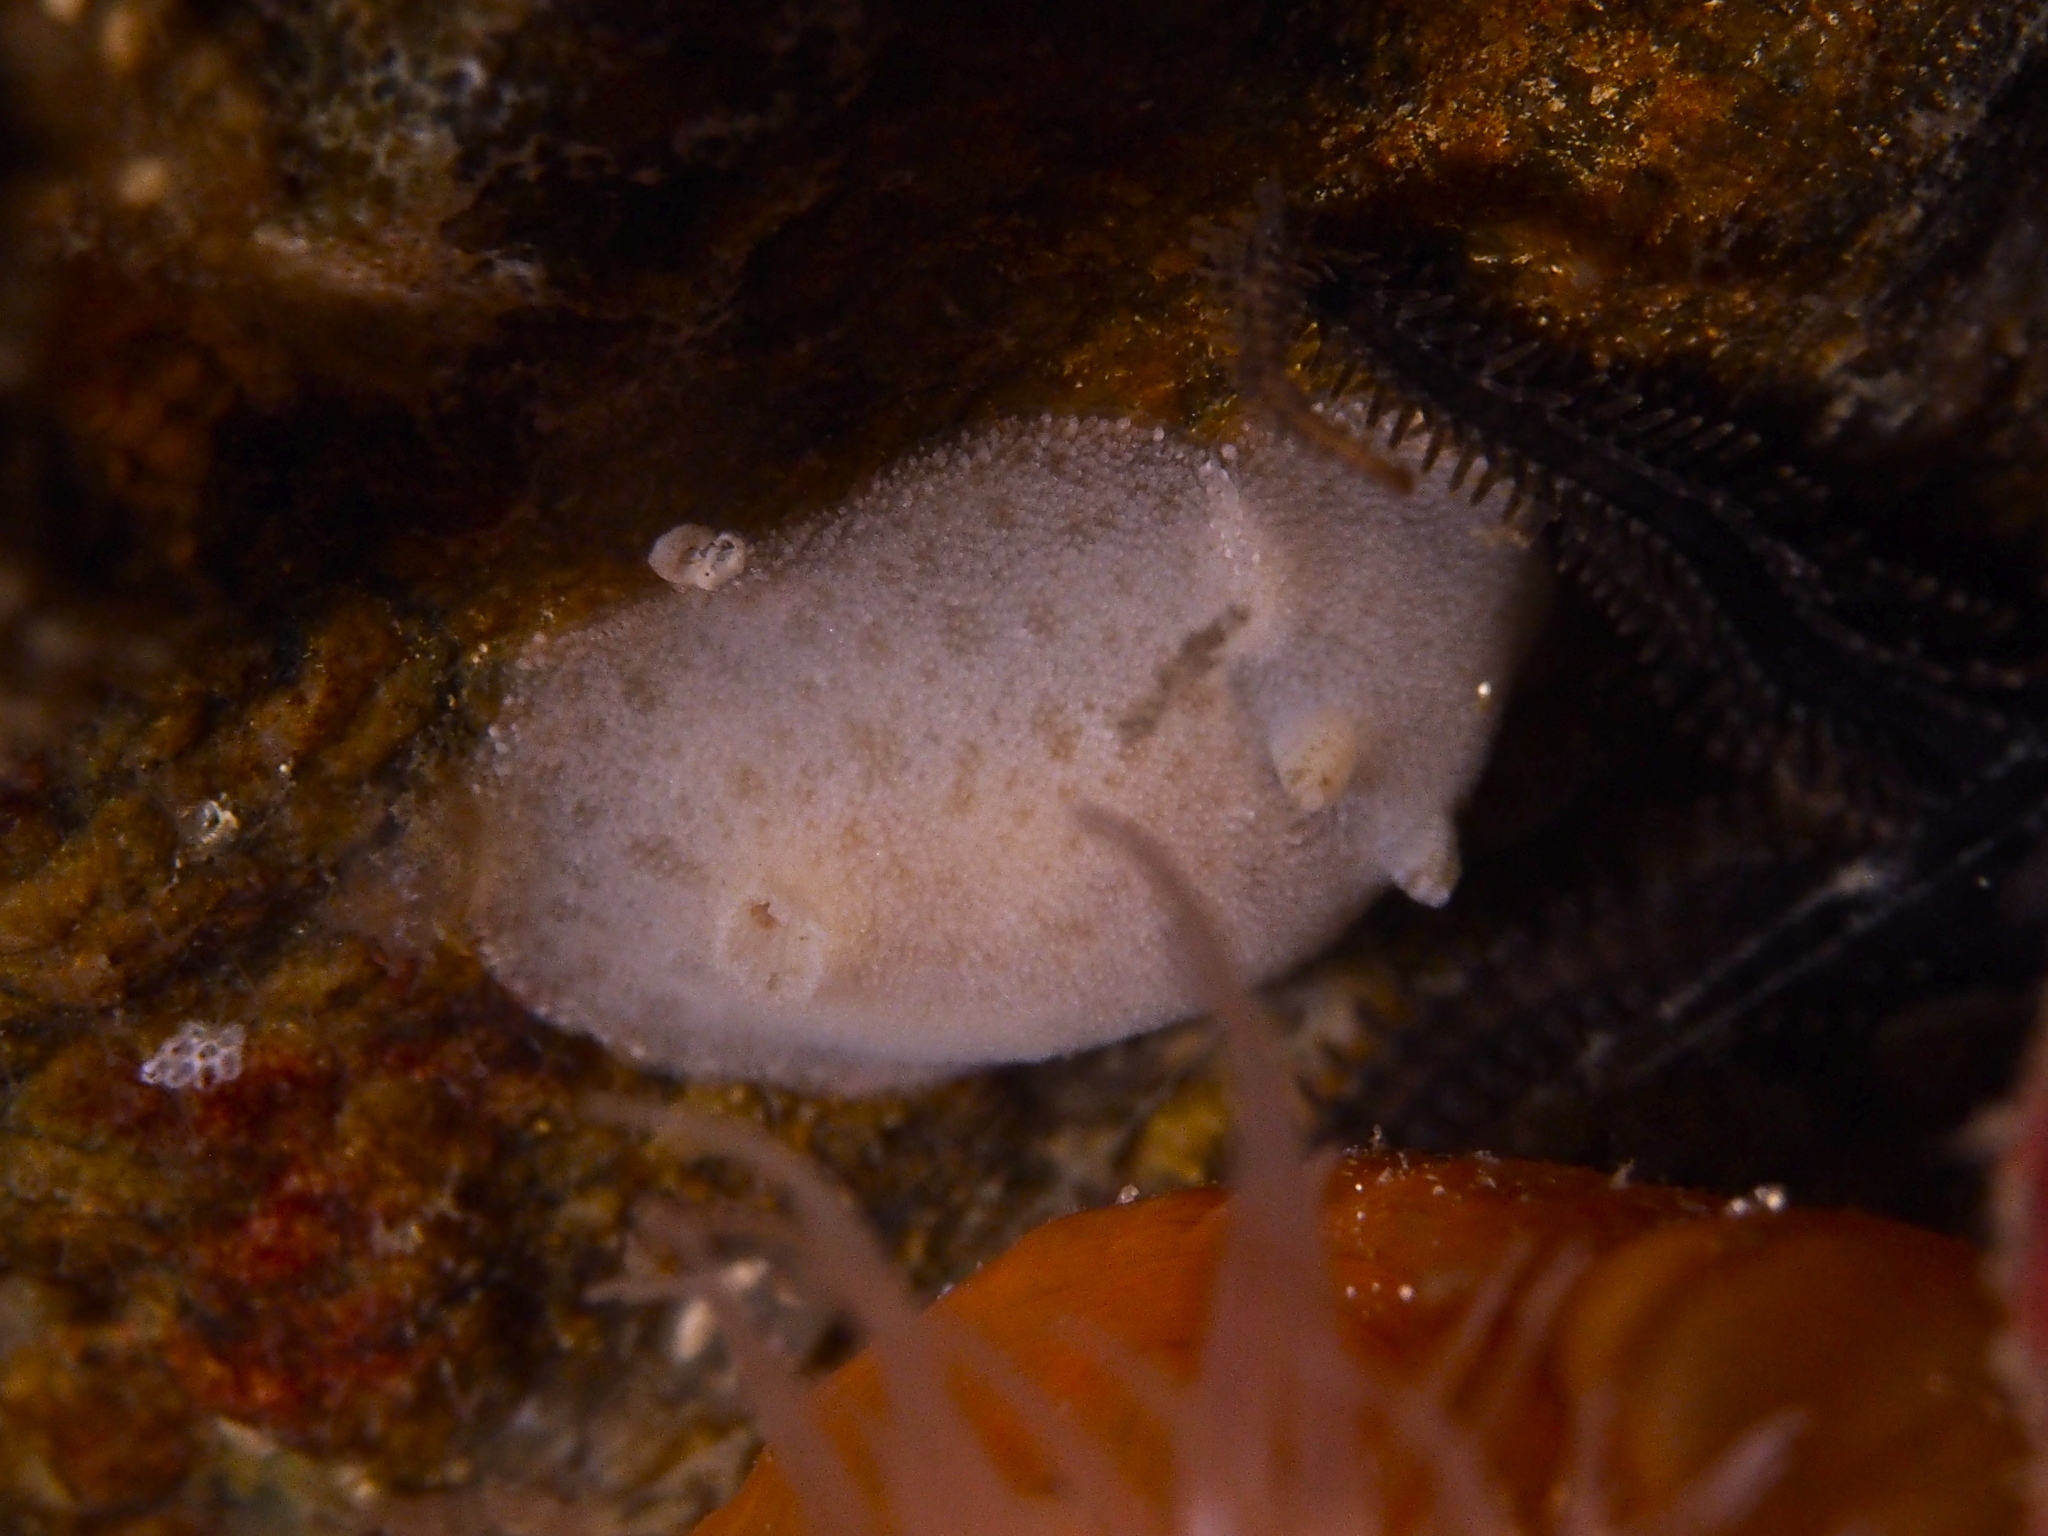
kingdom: Animalia
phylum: Mollusca
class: Gastropoda
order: Nudibranchia
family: Dorididae
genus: Doris
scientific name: Doris pseudoargus
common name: Sea lemon
